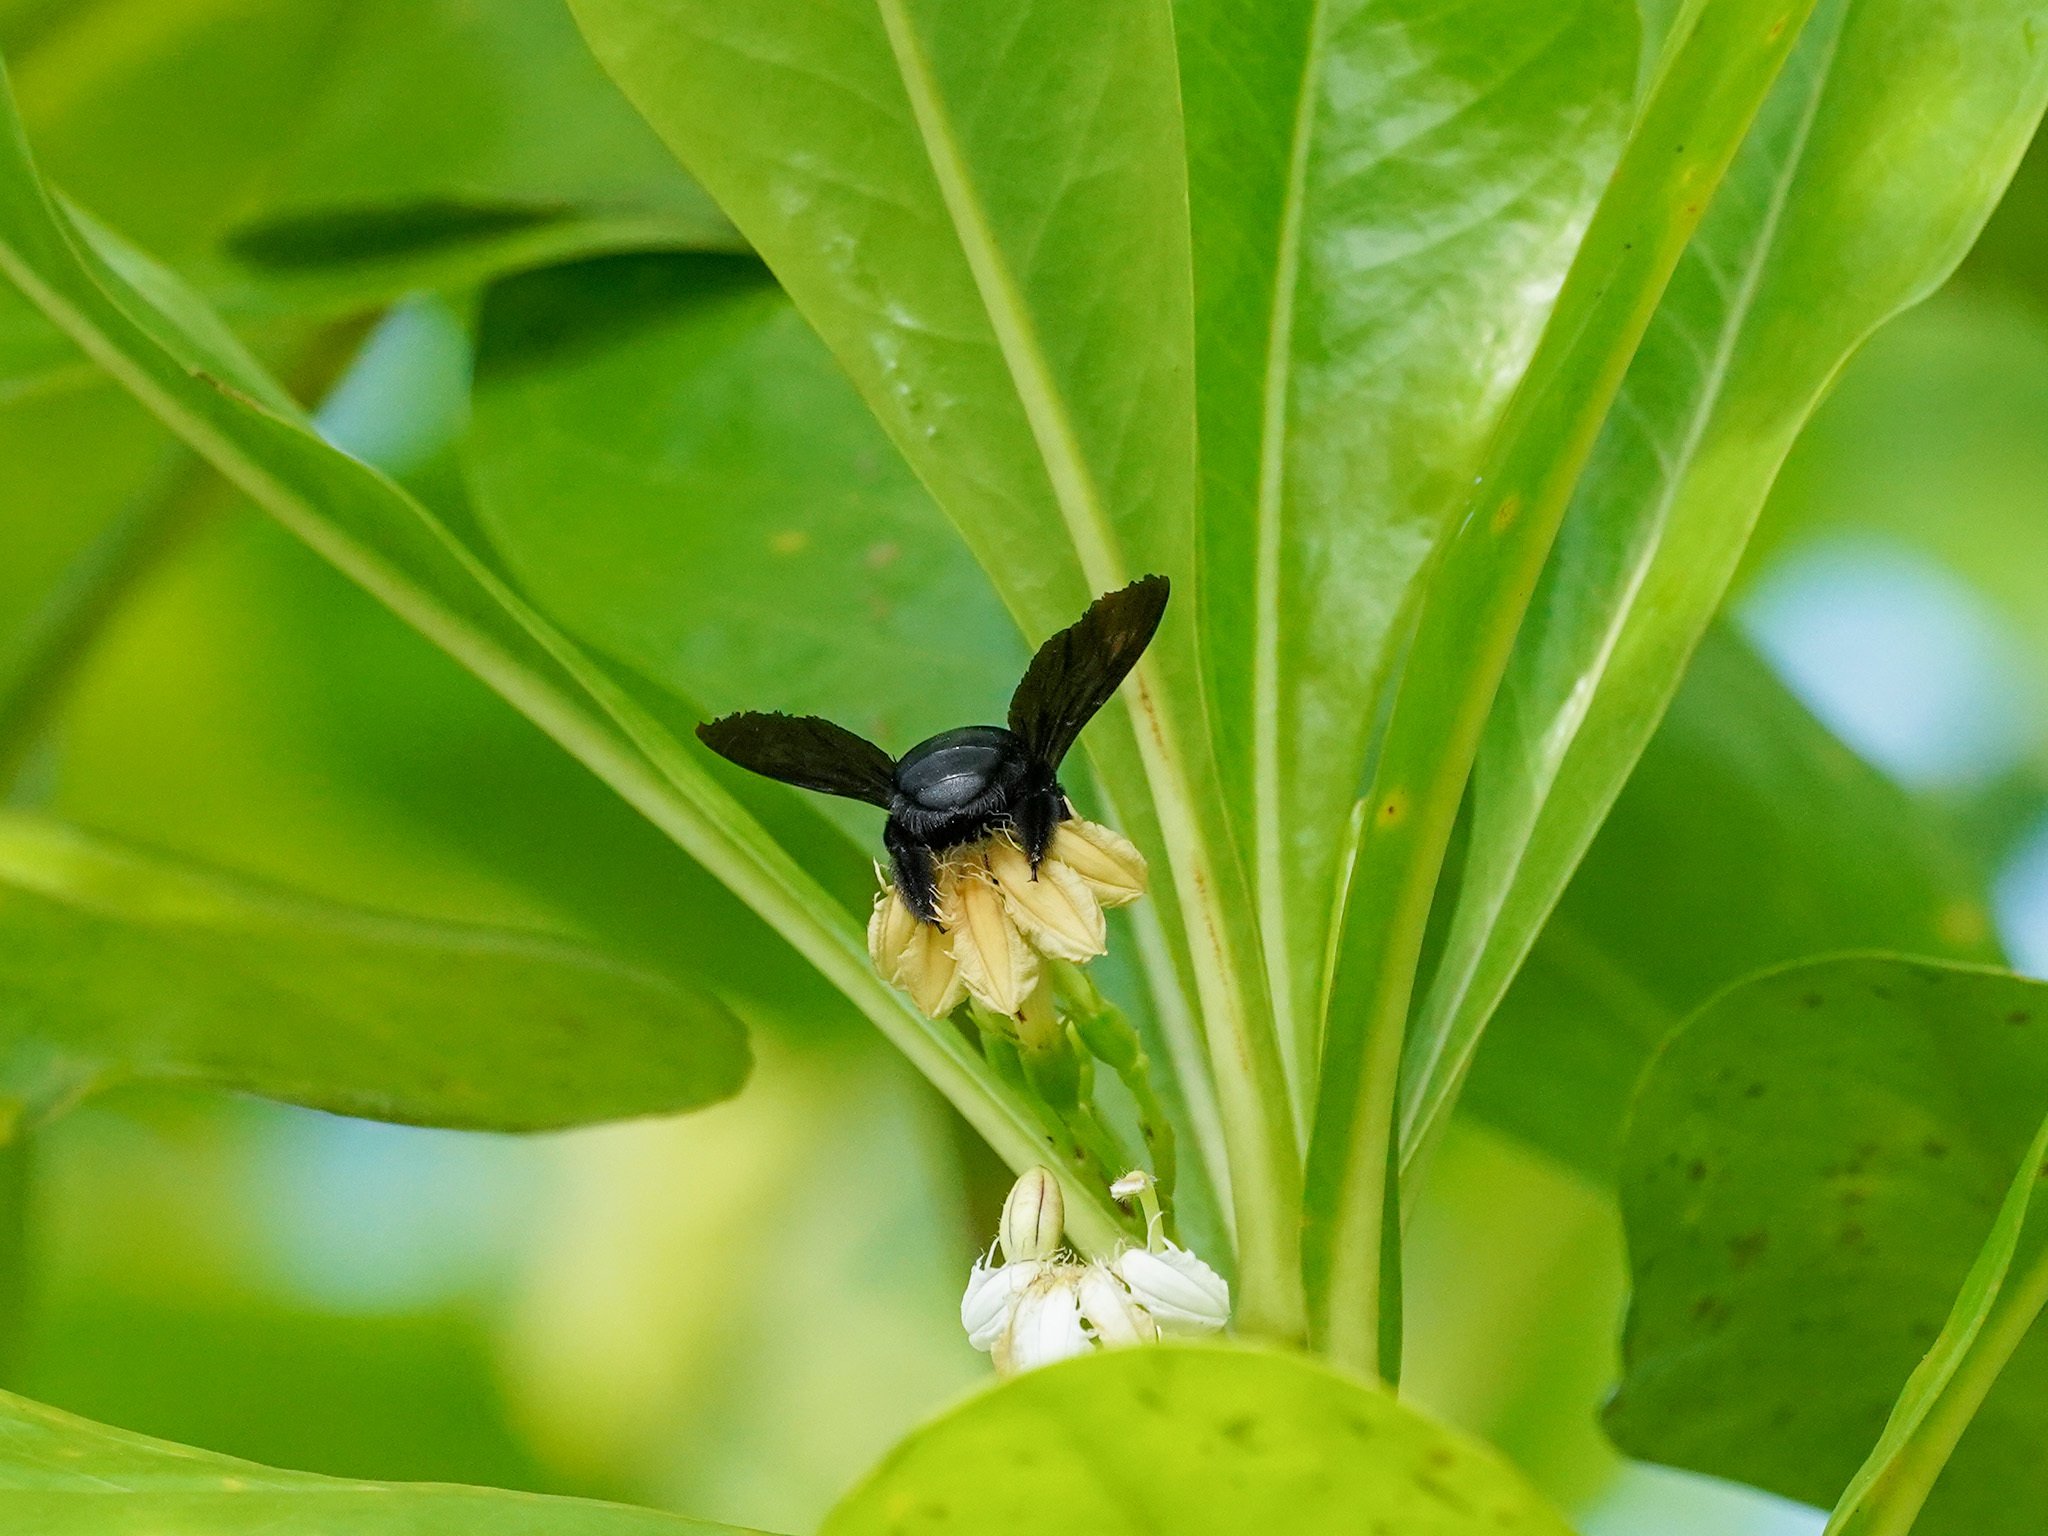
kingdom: Animalia
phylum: Arthropoda
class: Insecta
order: Hymenoptera
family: Apidae
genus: Xylocopa
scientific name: Xylocopa latipes
